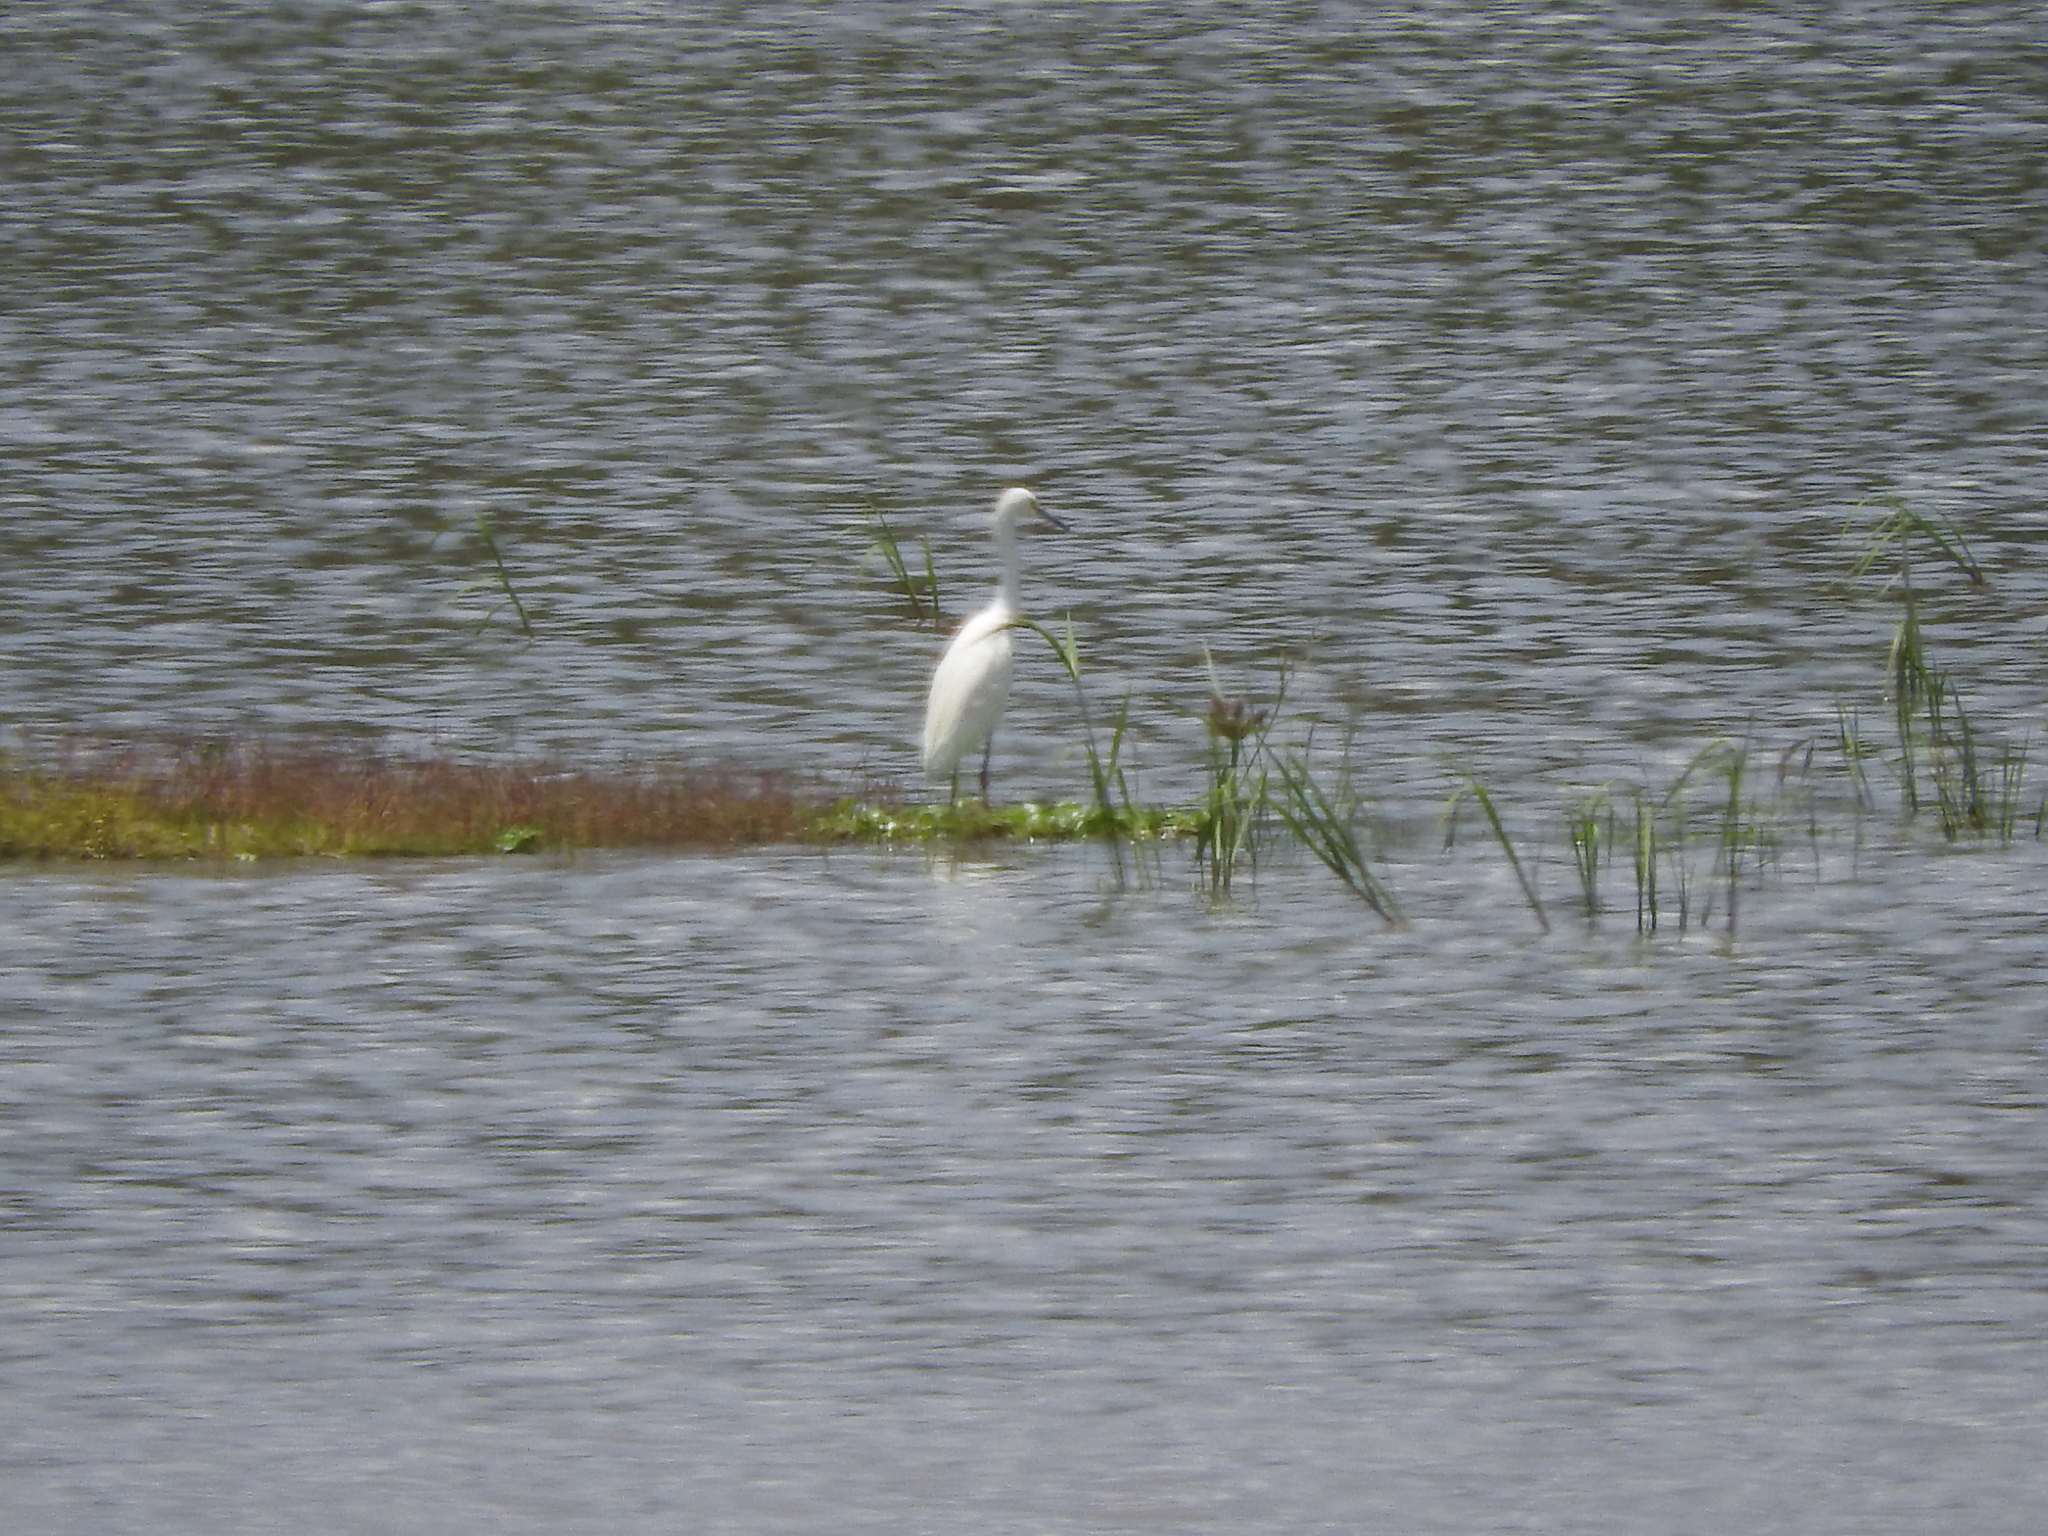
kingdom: Animalia
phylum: Chordata
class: Aves
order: Pelecaniformes
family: Ardeidae
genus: Egretta
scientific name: Egretta thula
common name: Snowy egret
